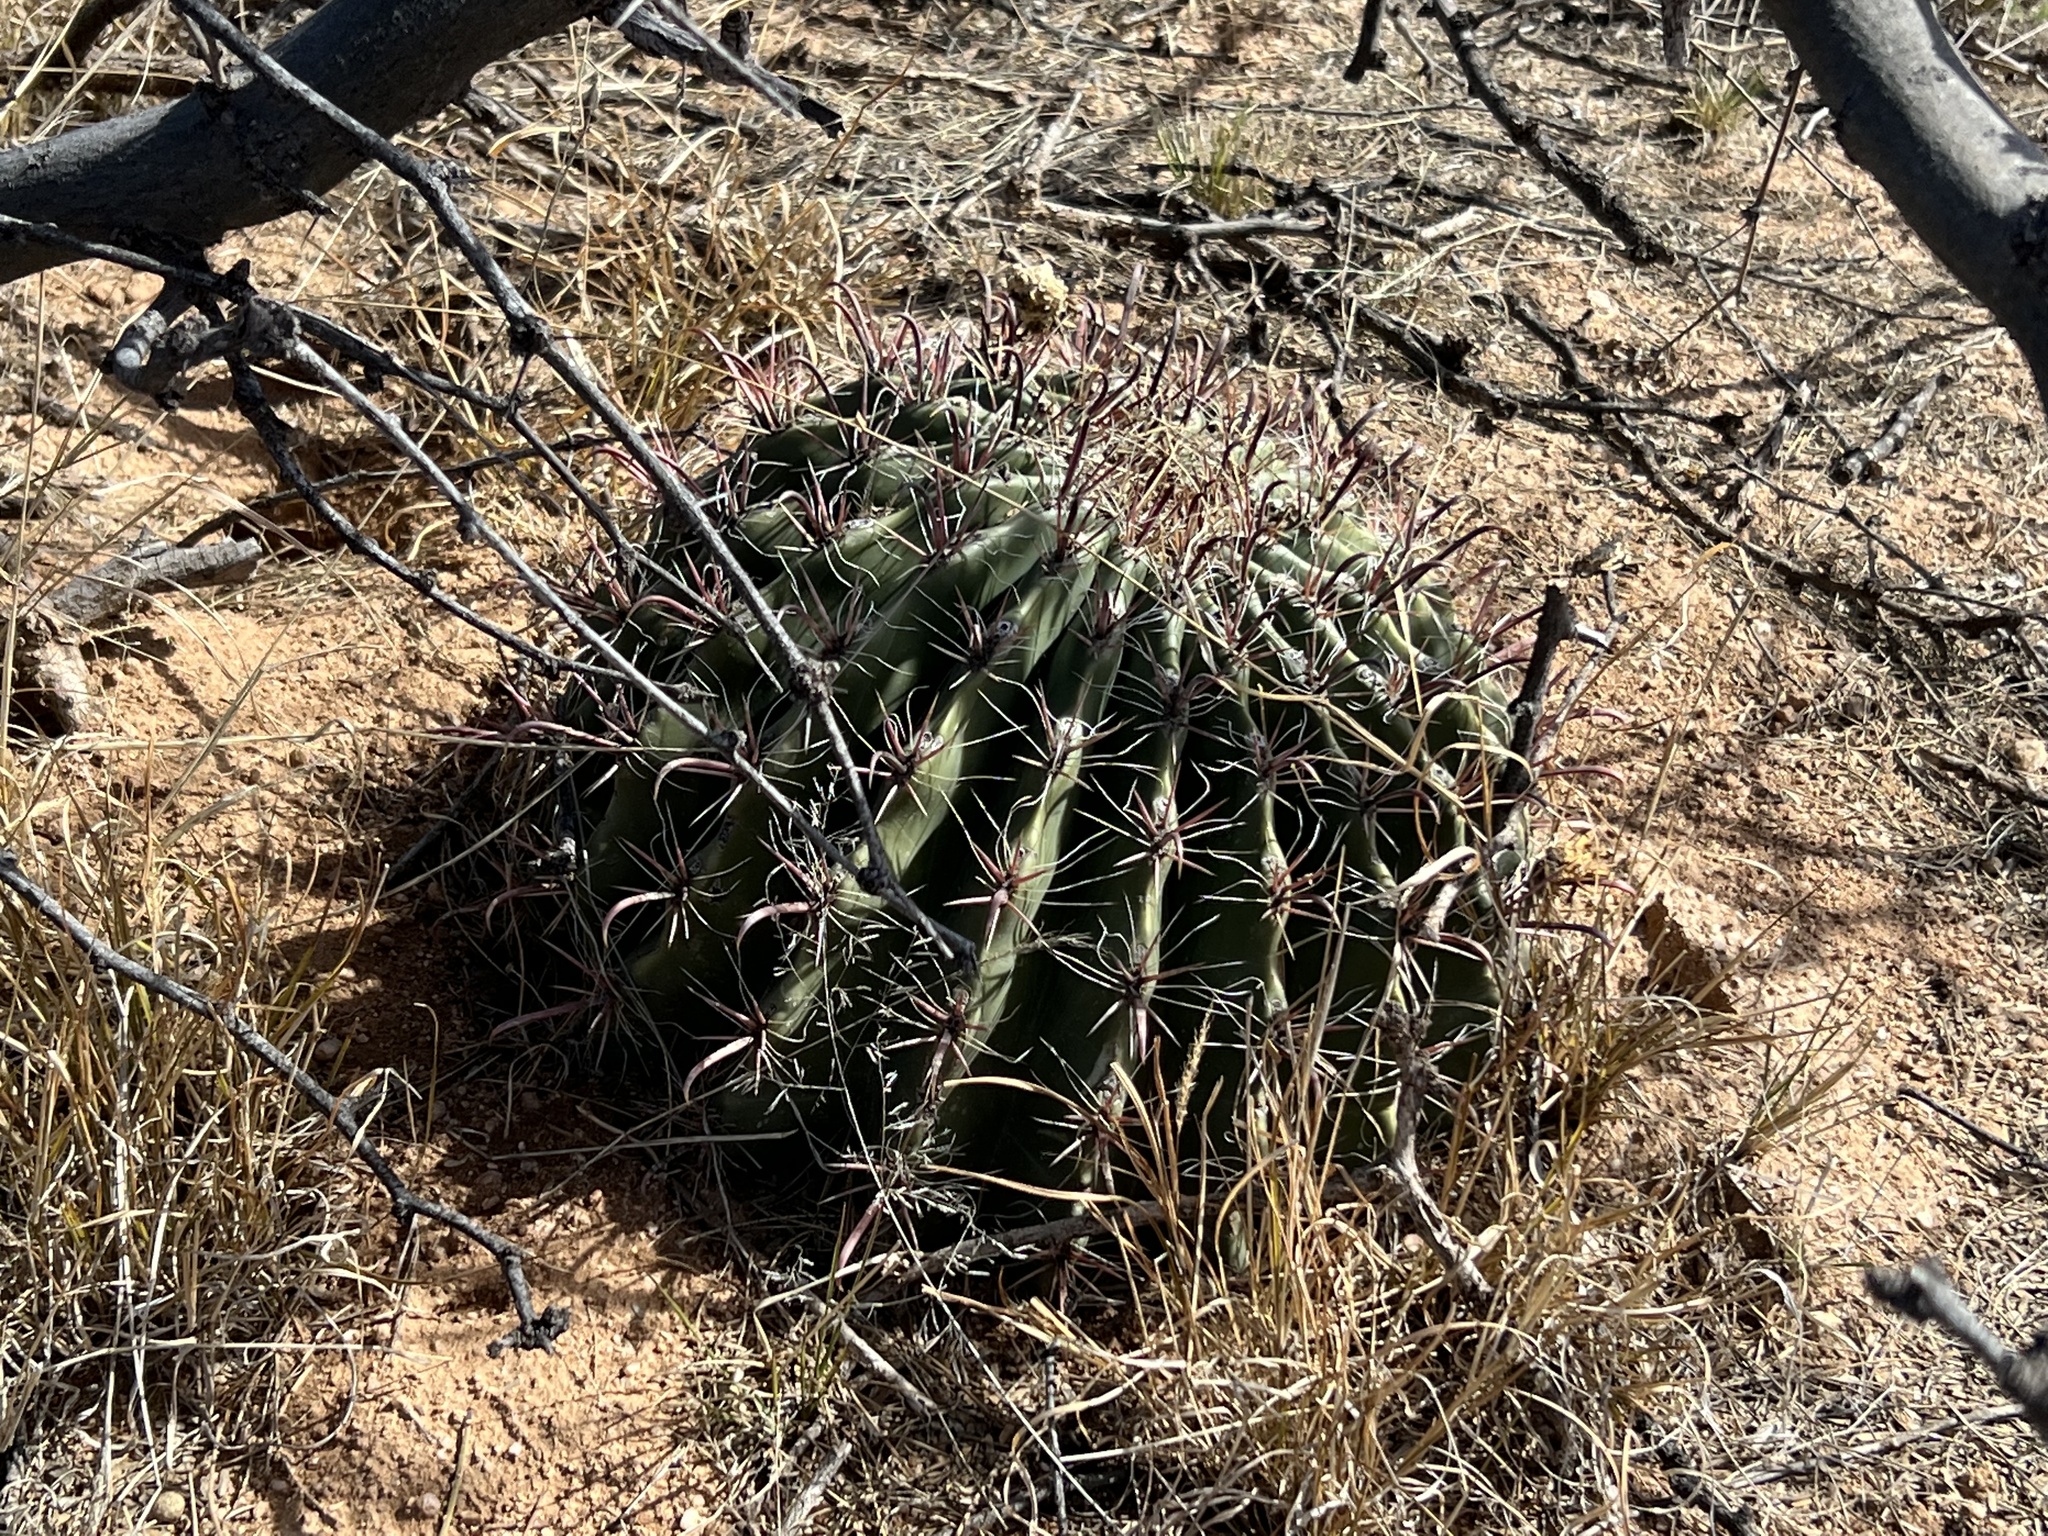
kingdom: Plantae
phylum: Tracheophyta
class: Magnoliopsida
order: Caryophyllales
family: Cactaceae
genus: Ferocactus
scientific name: Ferocactus wislizeni
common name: Candy barrel cactus
